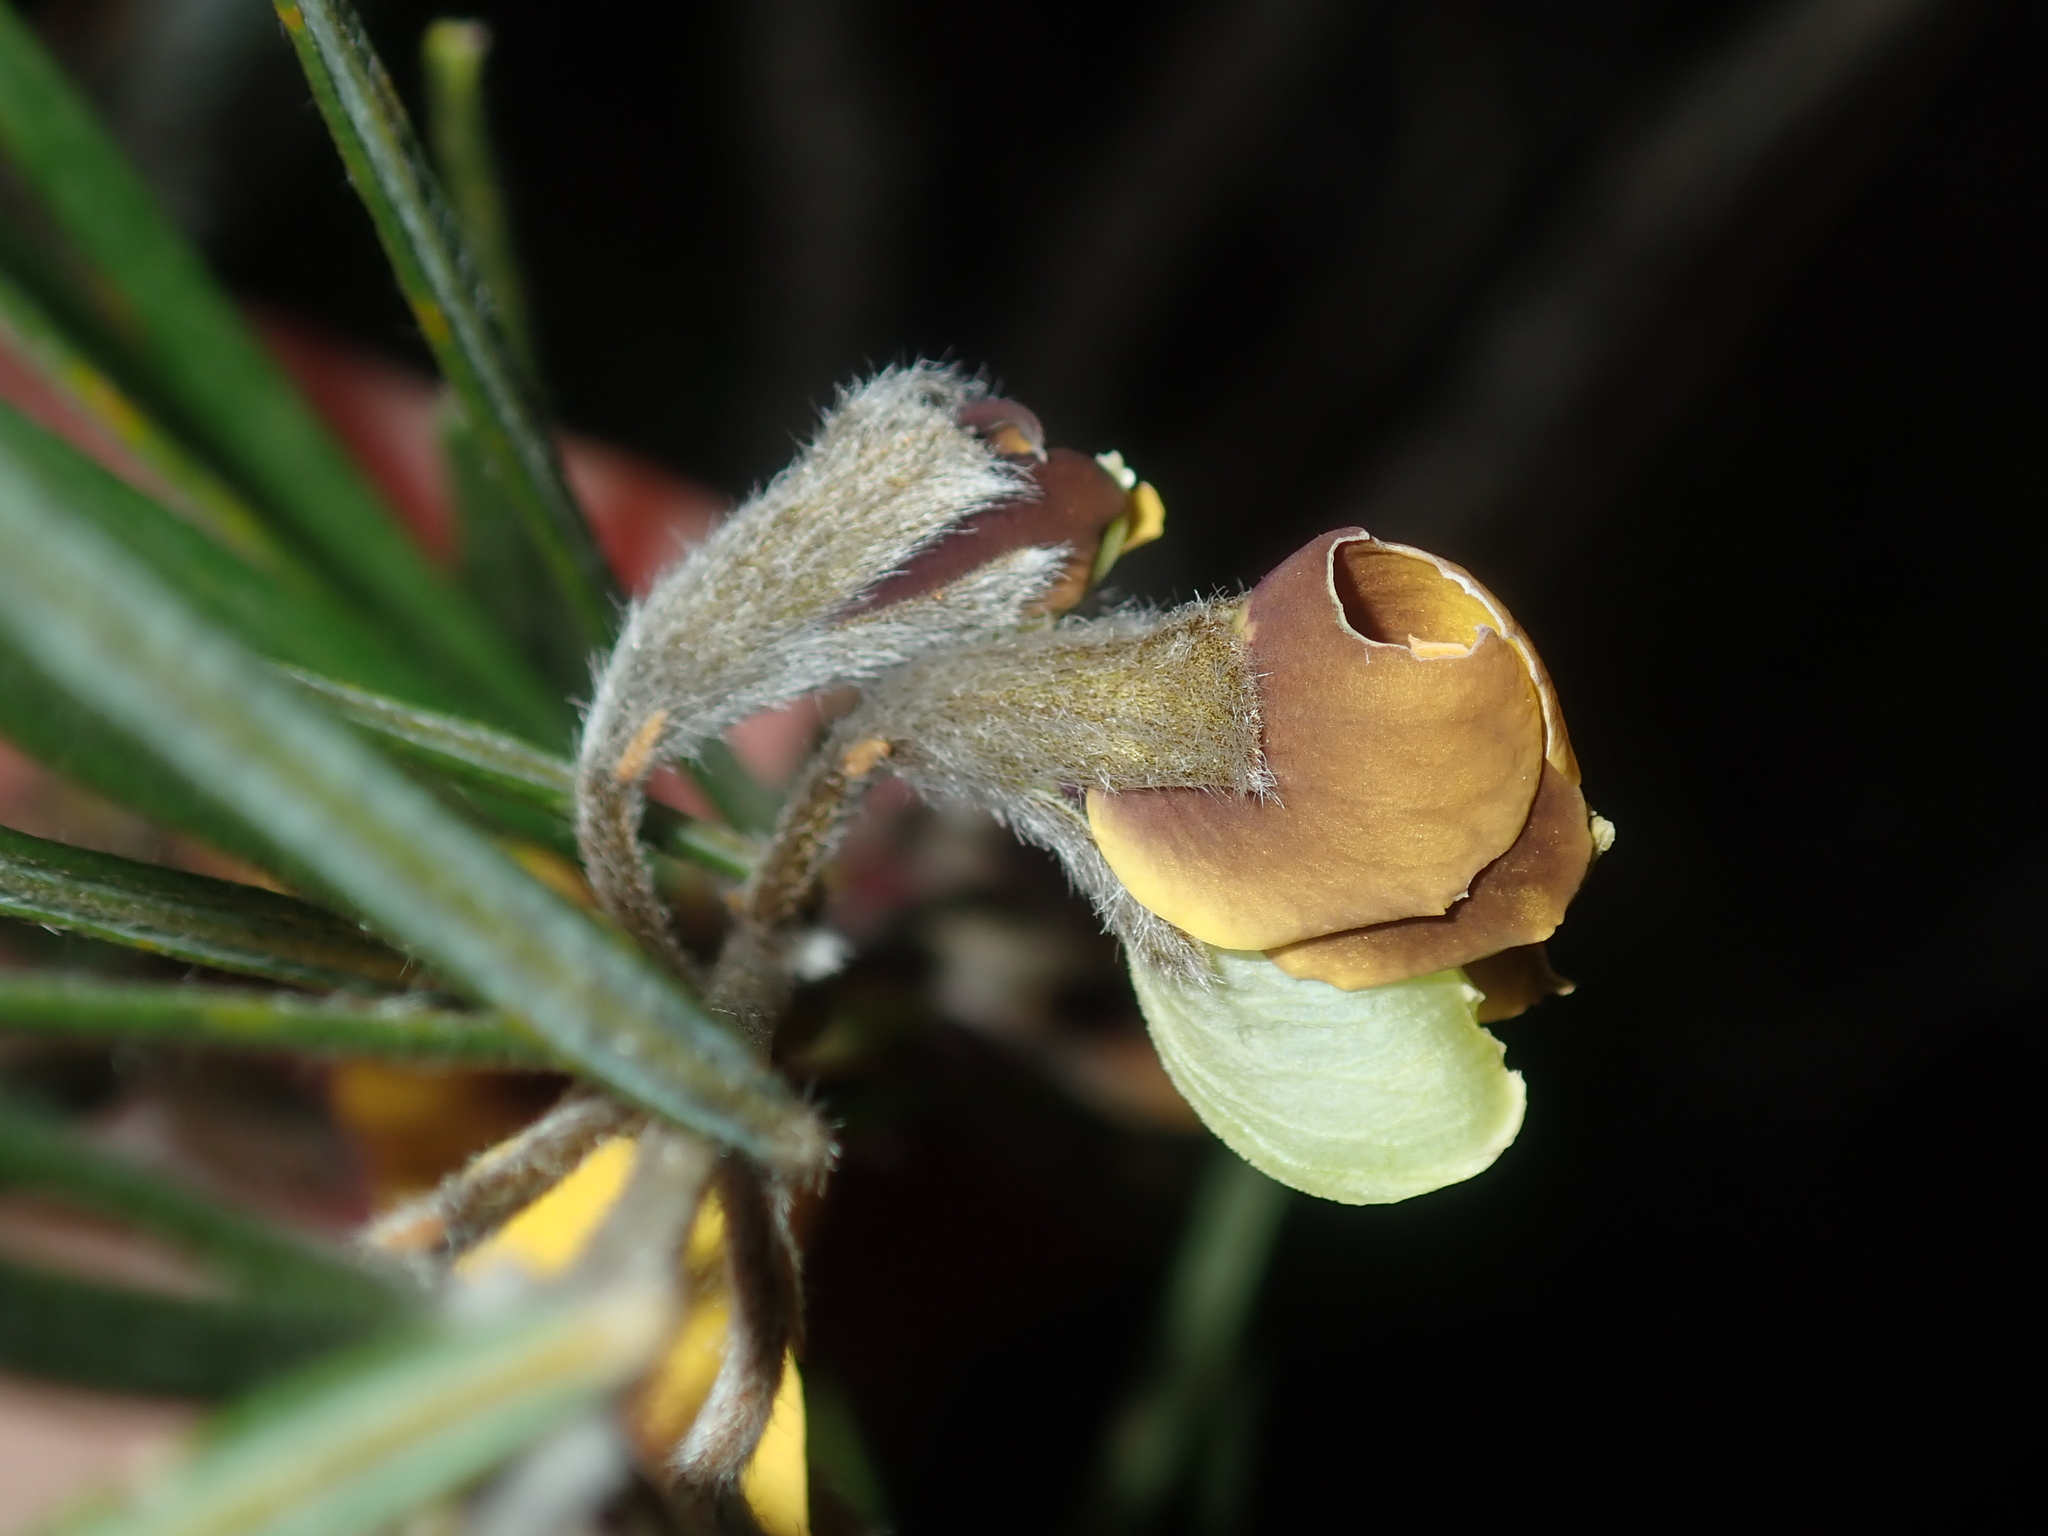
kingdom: Plantae
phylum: Tracheophyta
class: Magnoliopsida
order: Fabales
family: Fabaceae
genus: Cristonia
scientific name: Cristonia stenophylla
